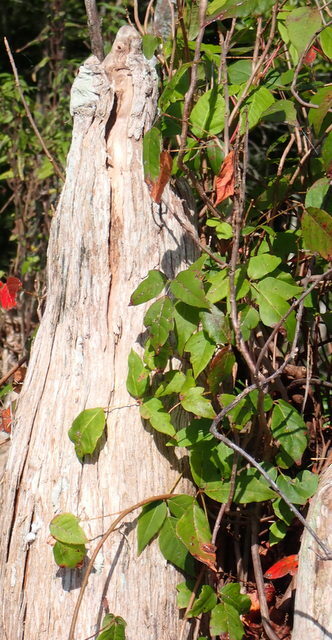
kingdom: Plantae
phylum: Tracheophyta
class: Magnoliopsida
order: Sapindales
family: Anacardiaceae
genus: Toxicodendron
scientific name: Toxicodendron radicans
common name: Poison ivy
